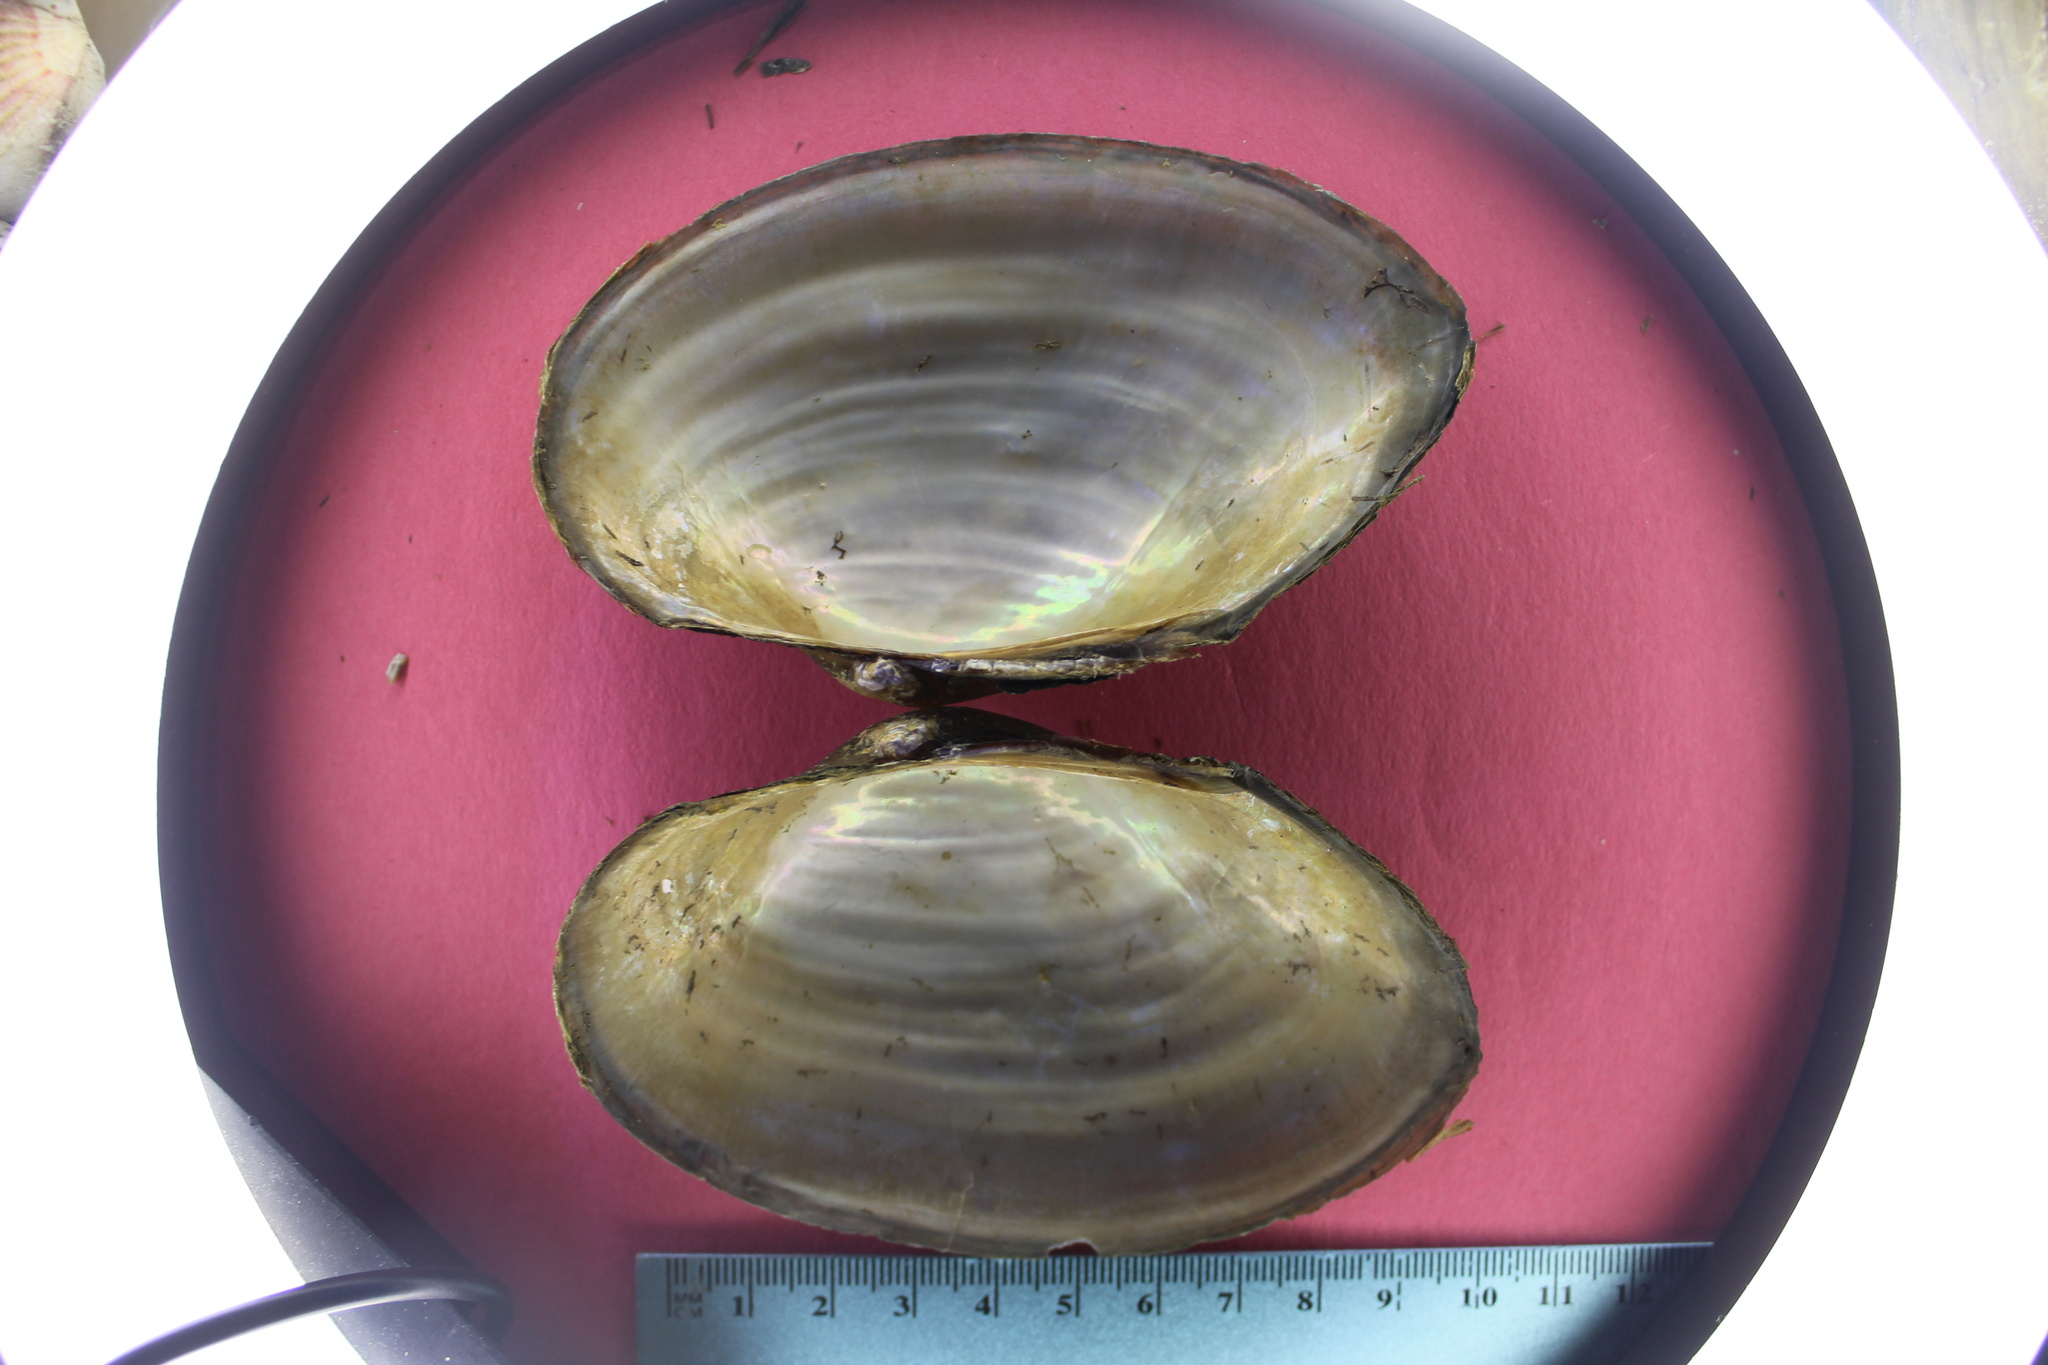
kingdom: Animalia
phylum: Mollusca
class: Bivalvia
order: Unionida
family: Unionidae
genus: Pyganodon
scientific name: Pyganodon grandis
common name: Giant floater
